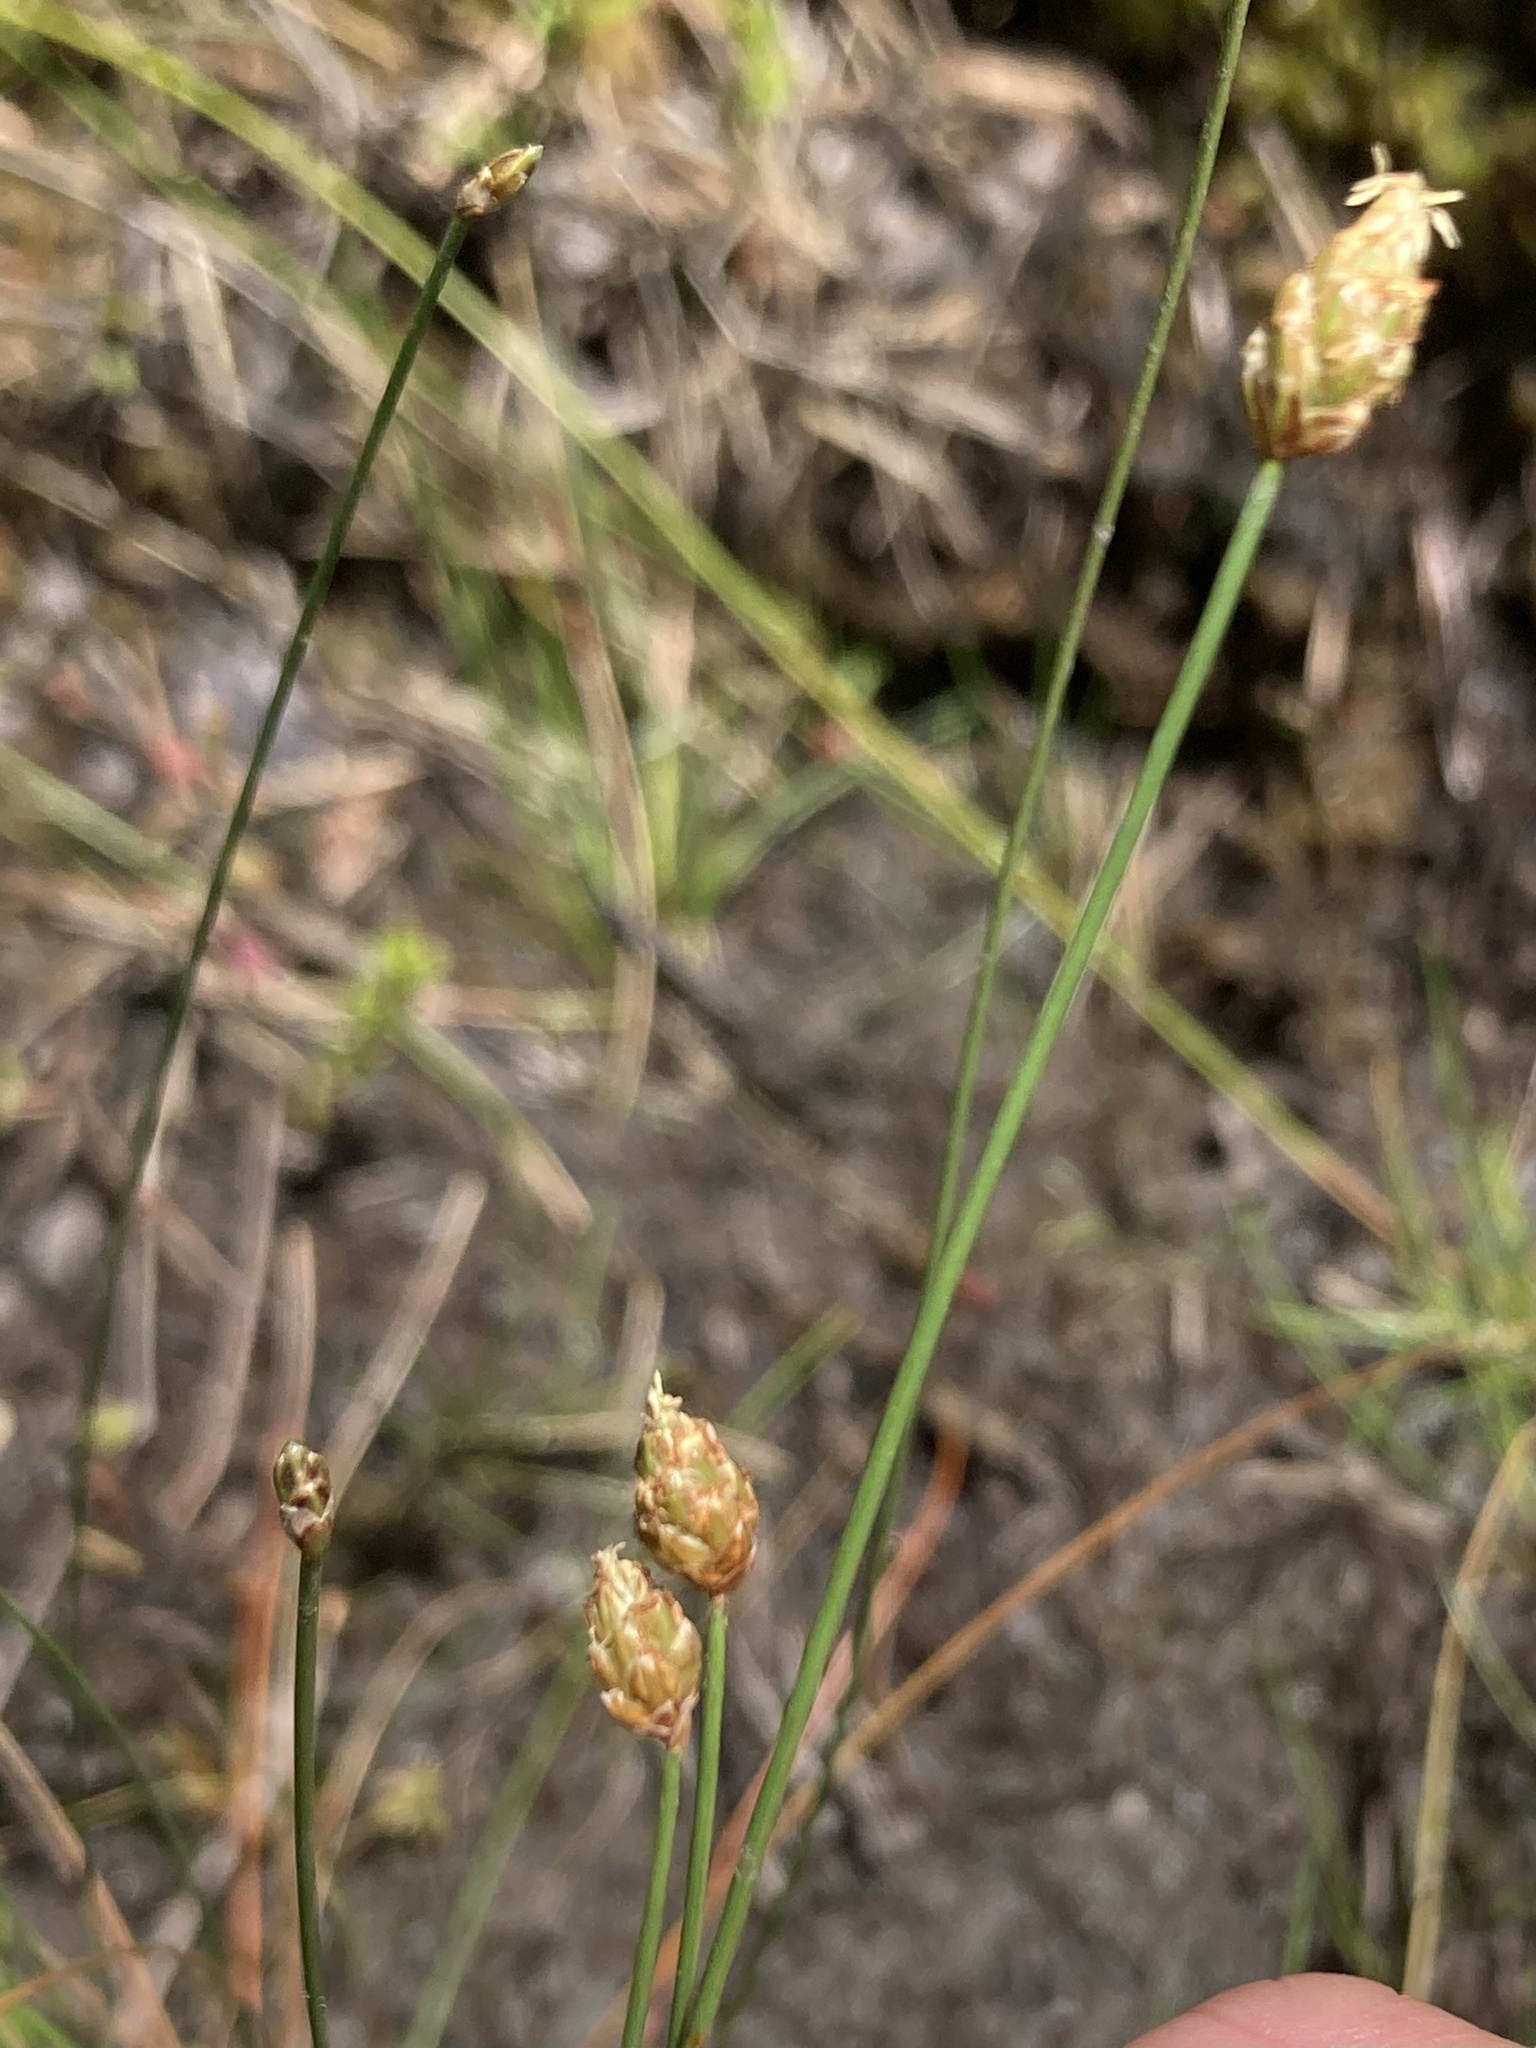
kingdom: Plantae
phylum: Tracheophyta
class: Liliopsida
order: Poales
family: Cyperaceae
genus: Eleocharis
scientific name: Eleocharis tuberculosa
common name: Cone-cup spikerush
